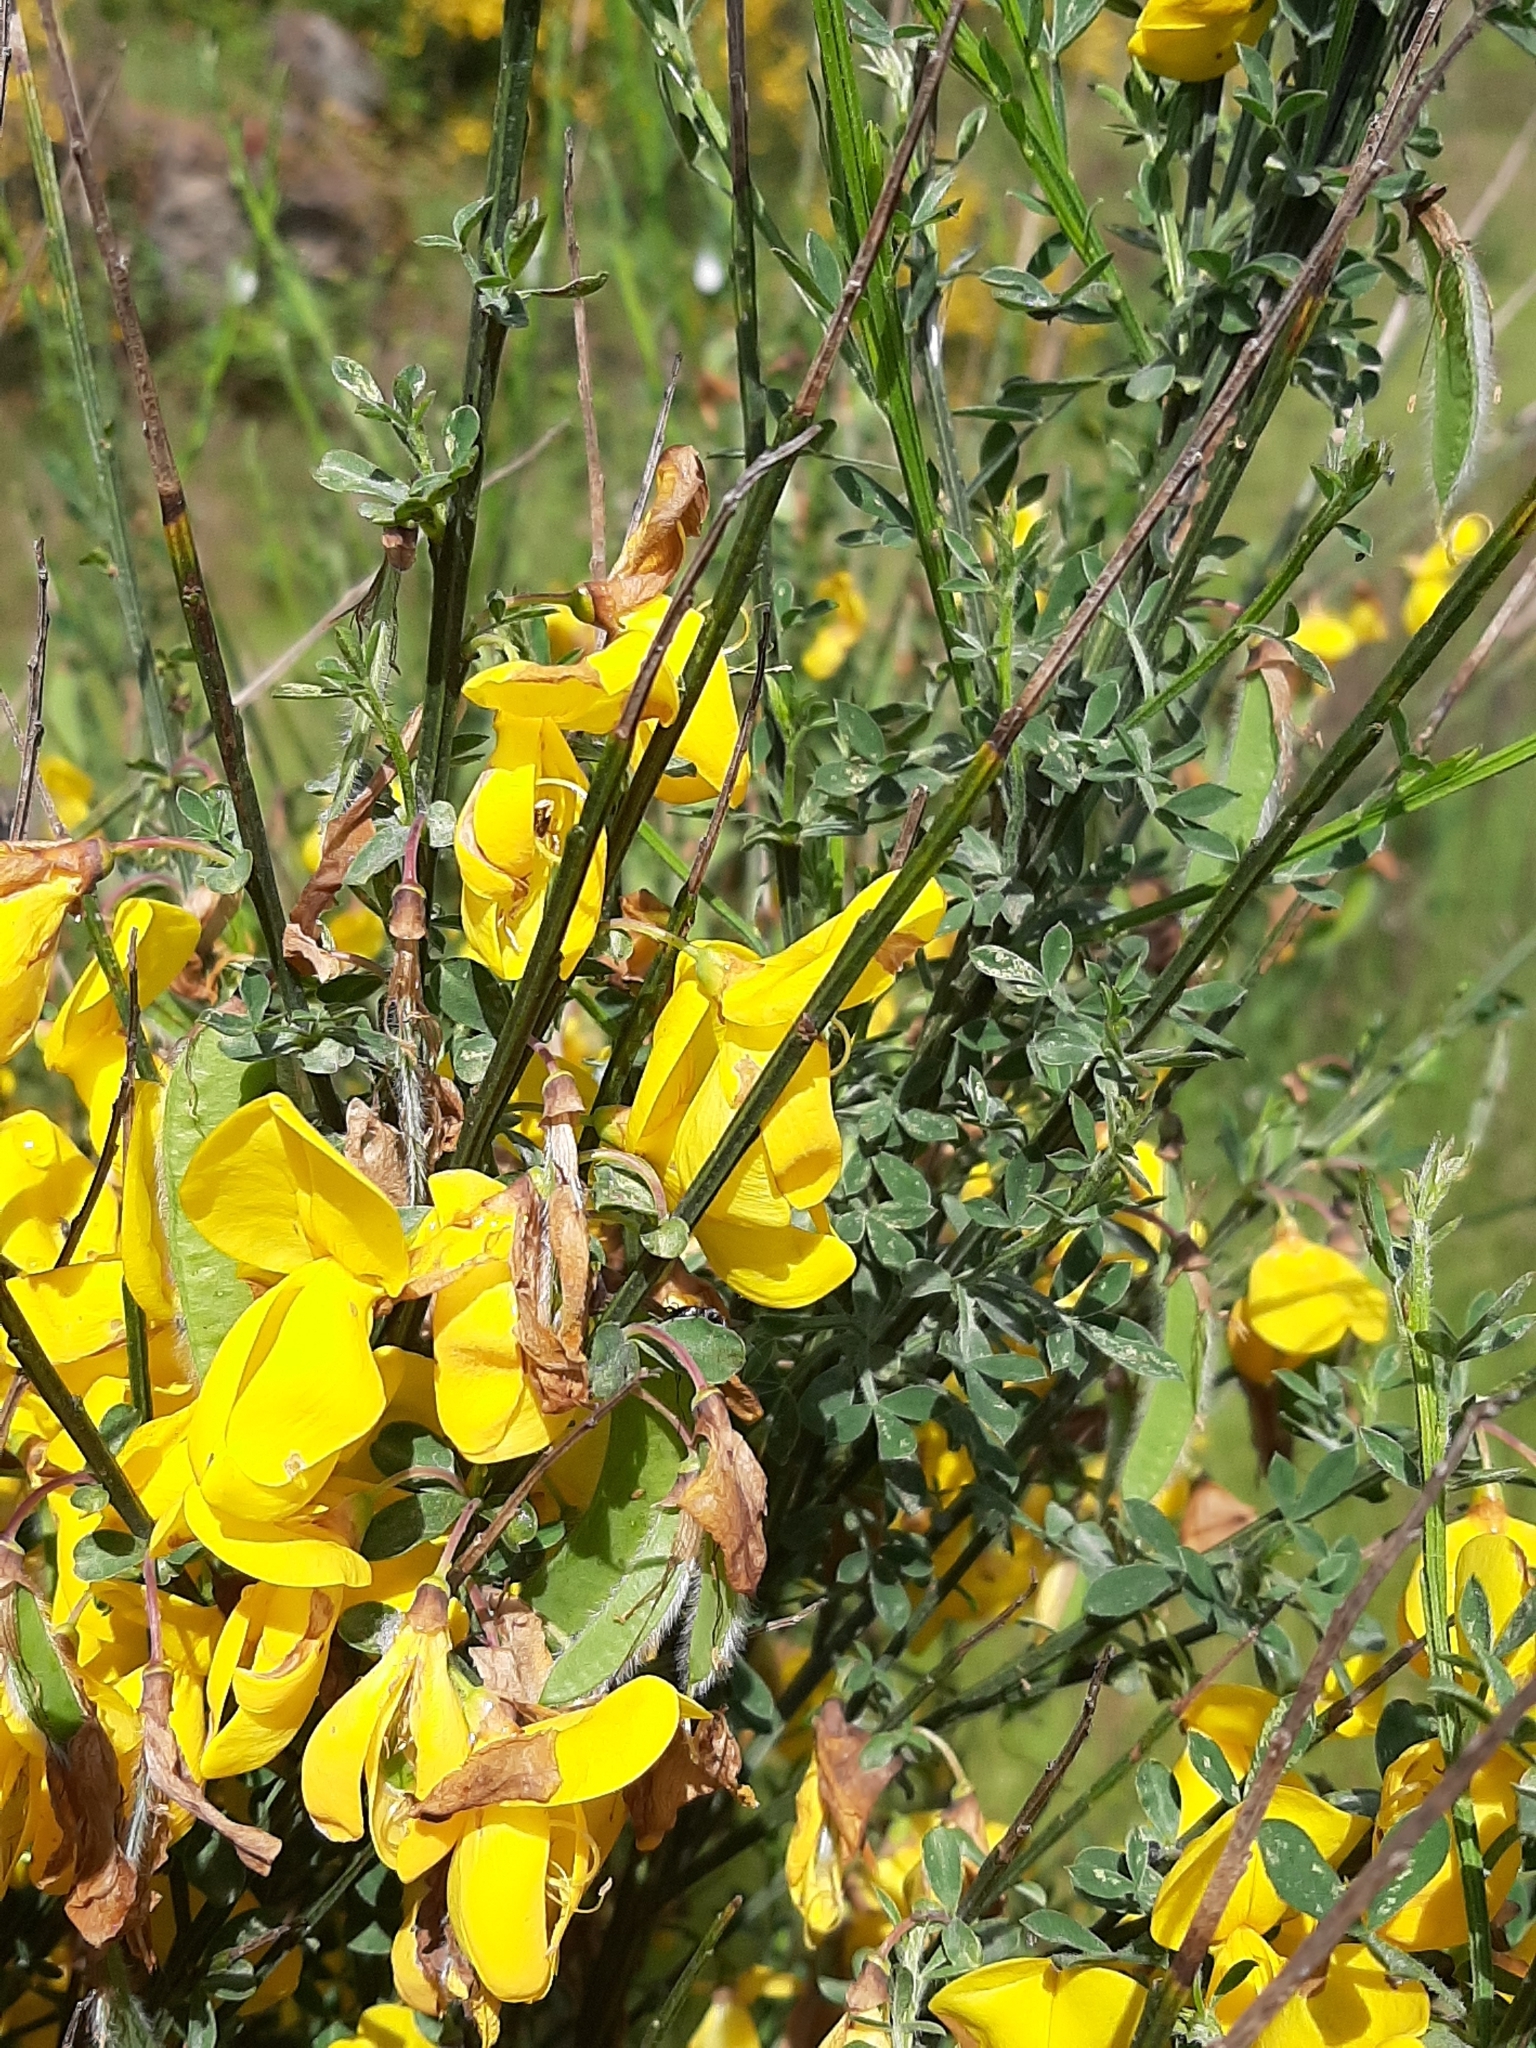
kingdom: Plantae
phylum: Tracheophyta
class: Magnoliopsida
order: Fabales
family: Fabaceae
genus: Cytisus
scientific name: Cytisus scoparius
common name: Scotch broom
